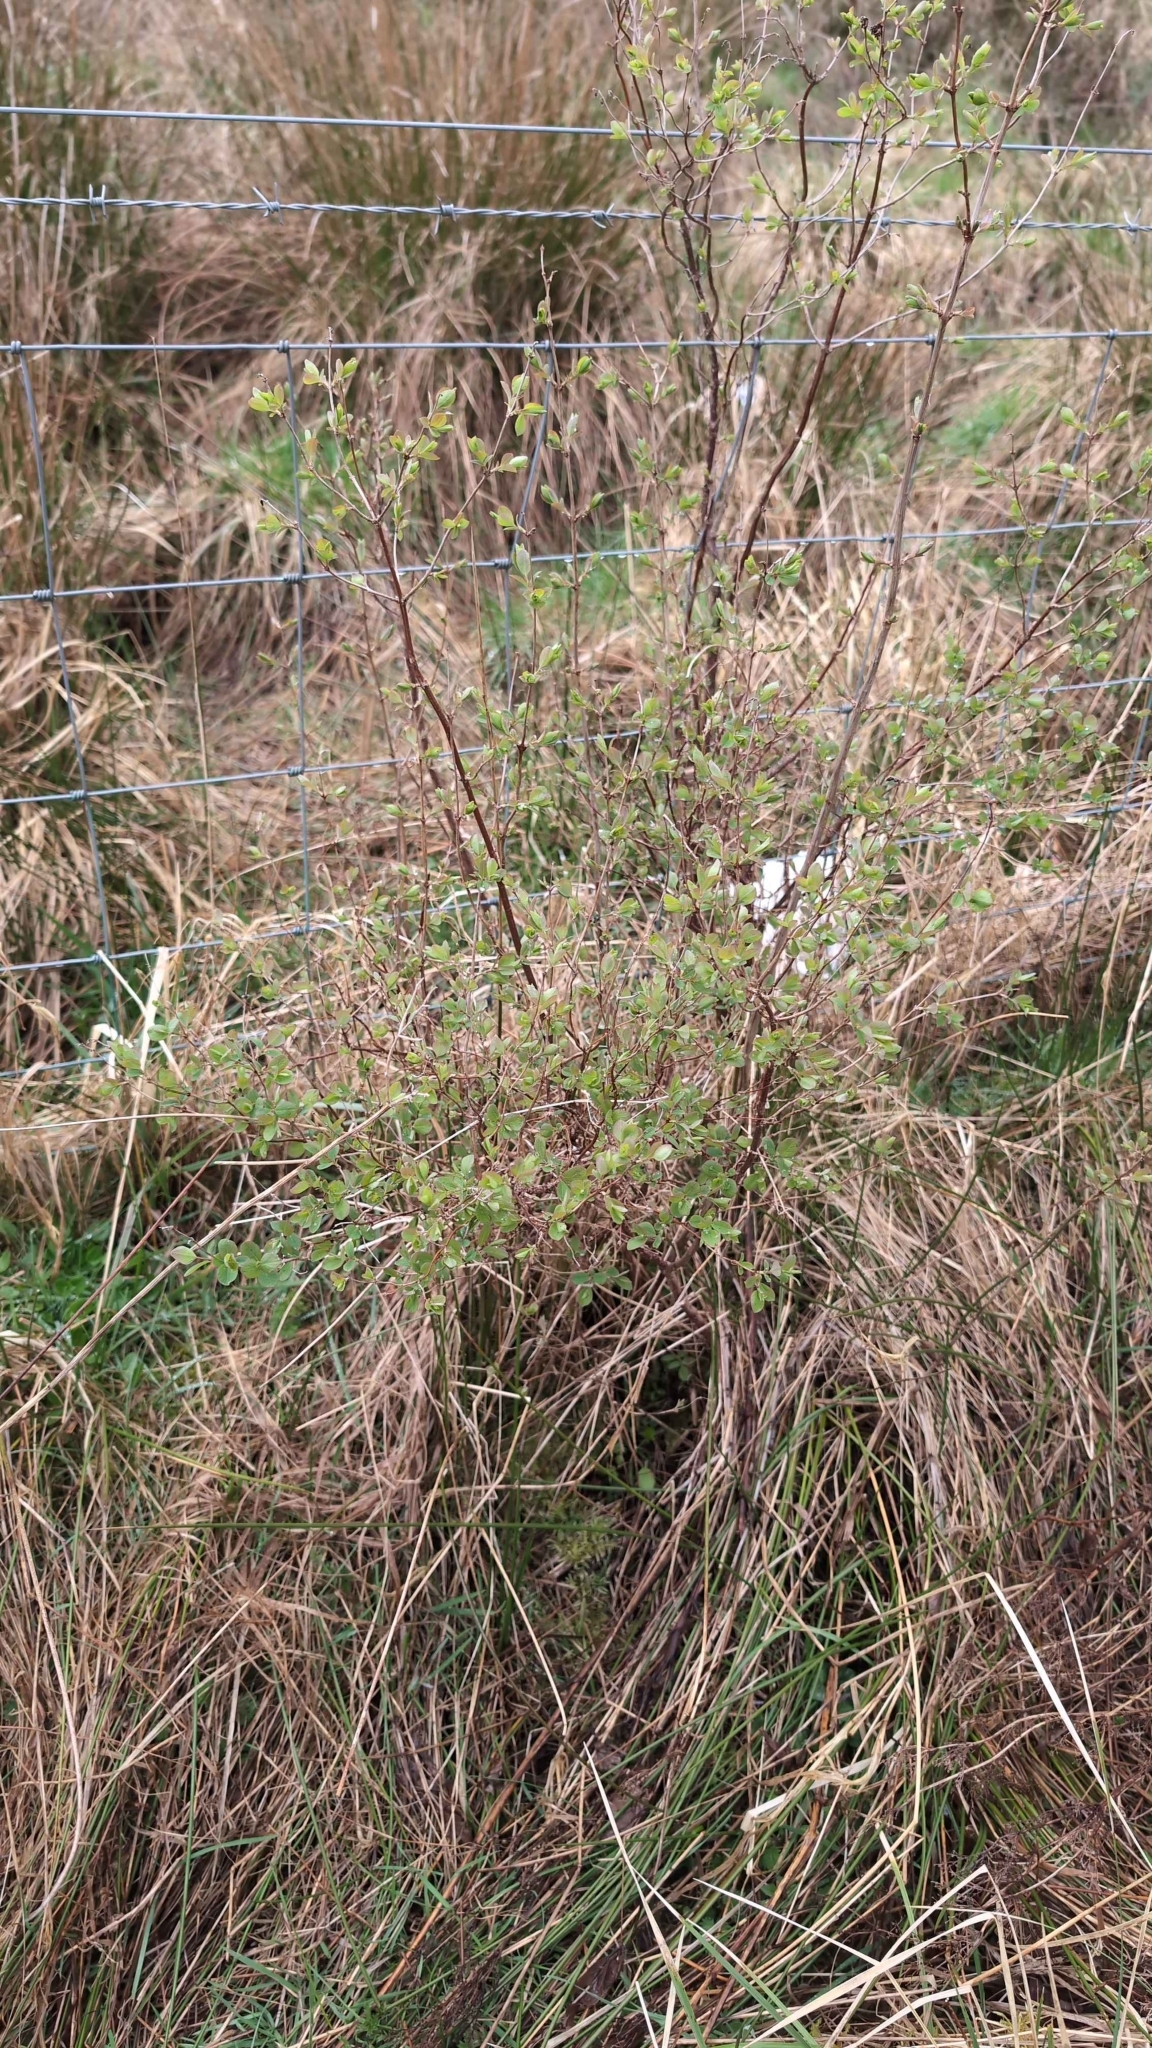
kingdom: Plantae
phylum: Tracheophyta
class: Magnoliopsida
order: Dipsacales
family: Caprifoliaceae
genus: Lonicera
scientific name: Lonicera periclymenum
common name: European honeysuckle
